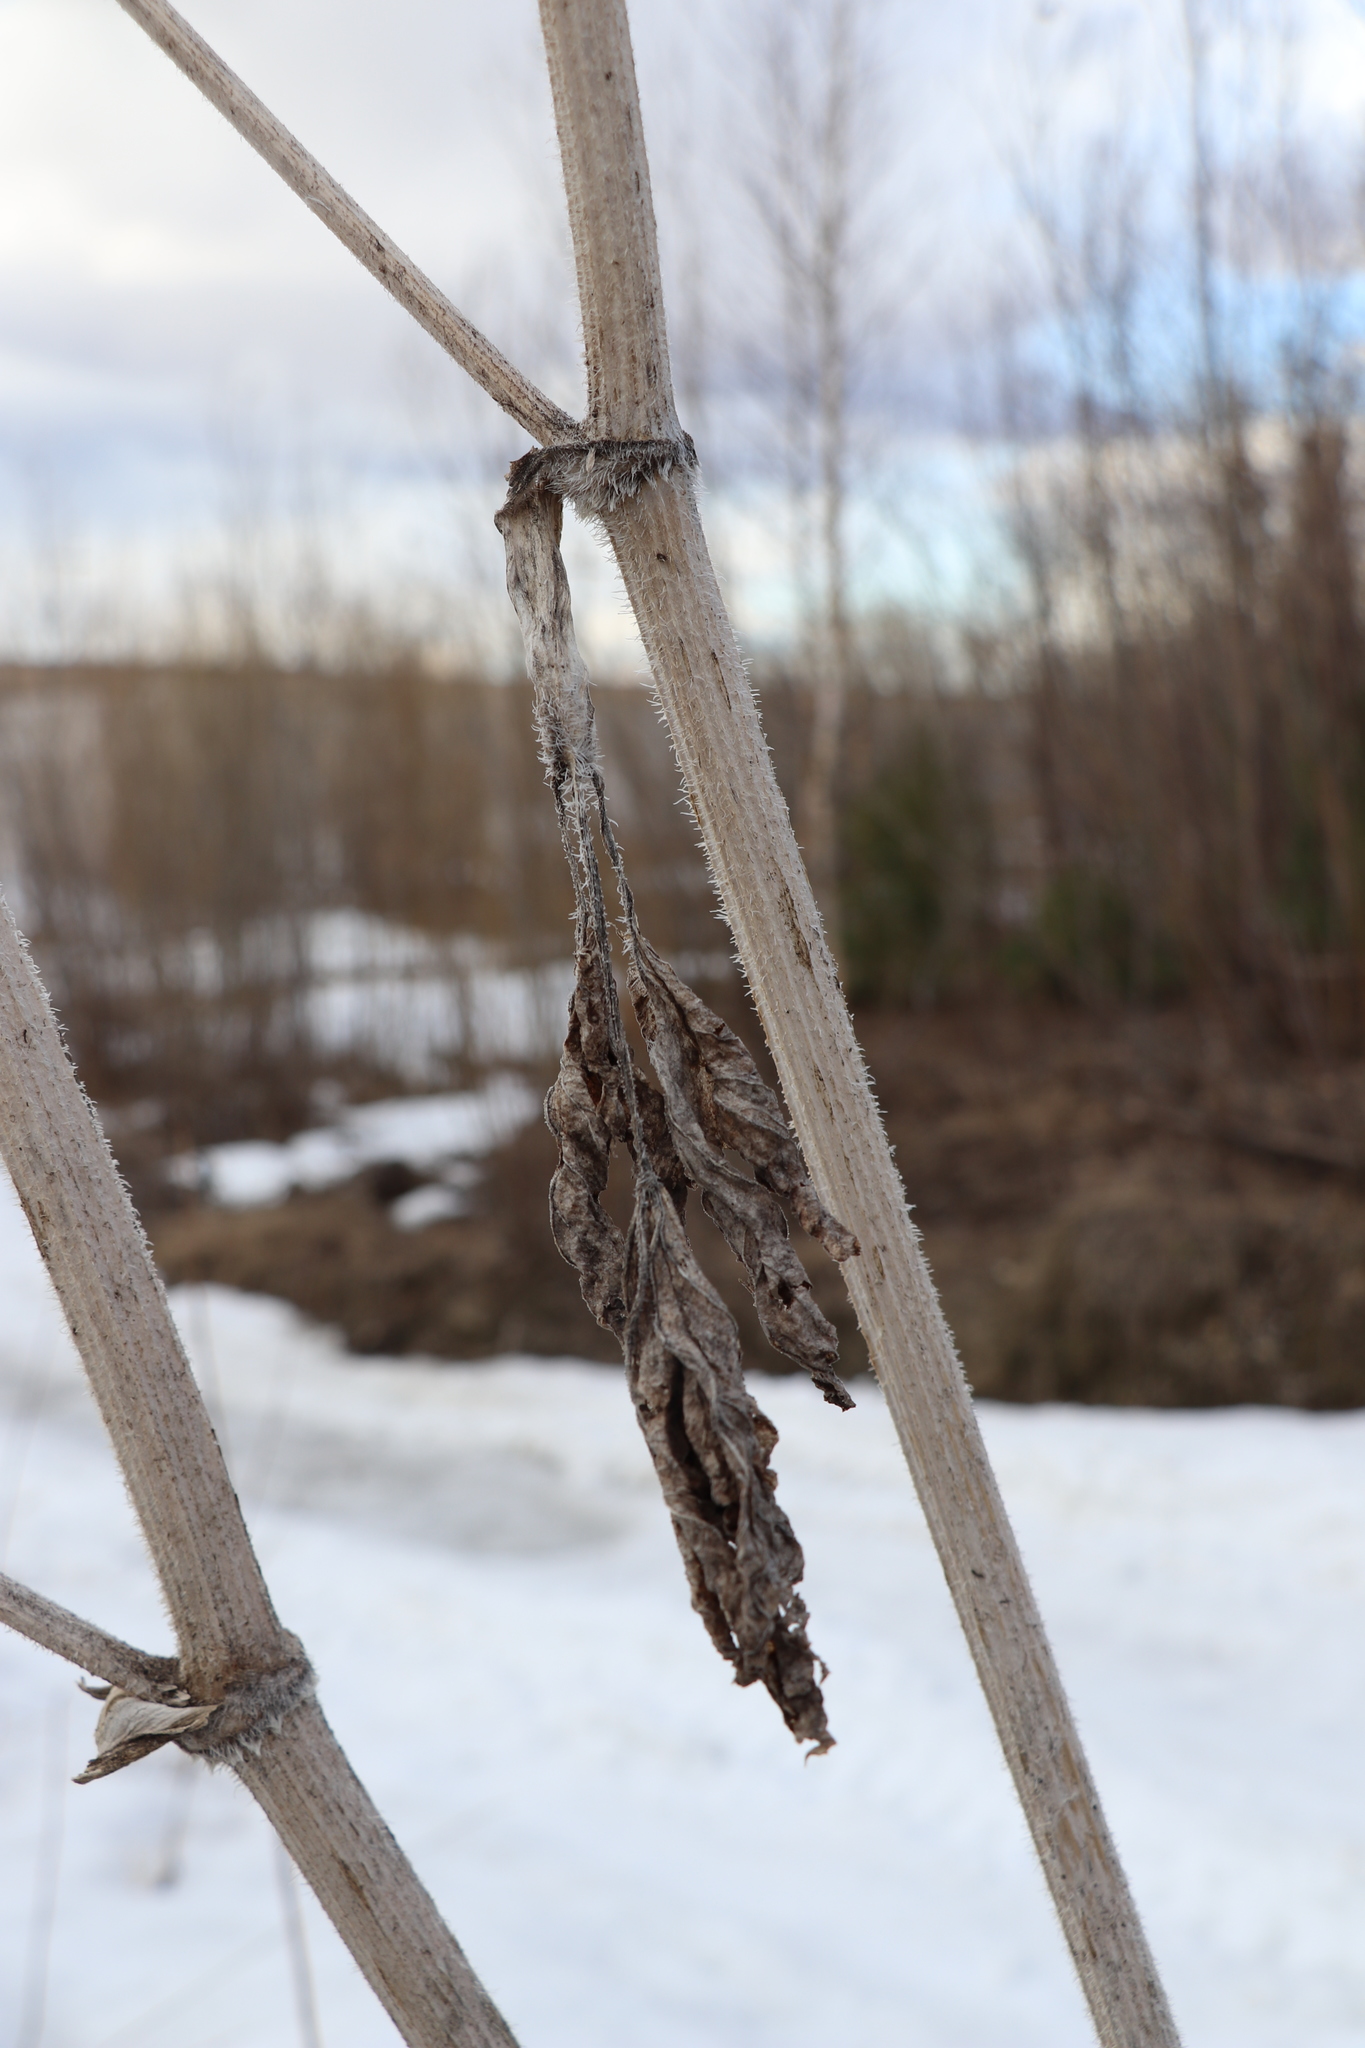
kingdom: Plantae
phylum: Tracheophyta
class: Magnoliopsida
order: Apiales
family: Apiaceae
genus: Heracleum
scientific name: Heracleum sosnowskyi
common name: Sosnowsky's hogweed
